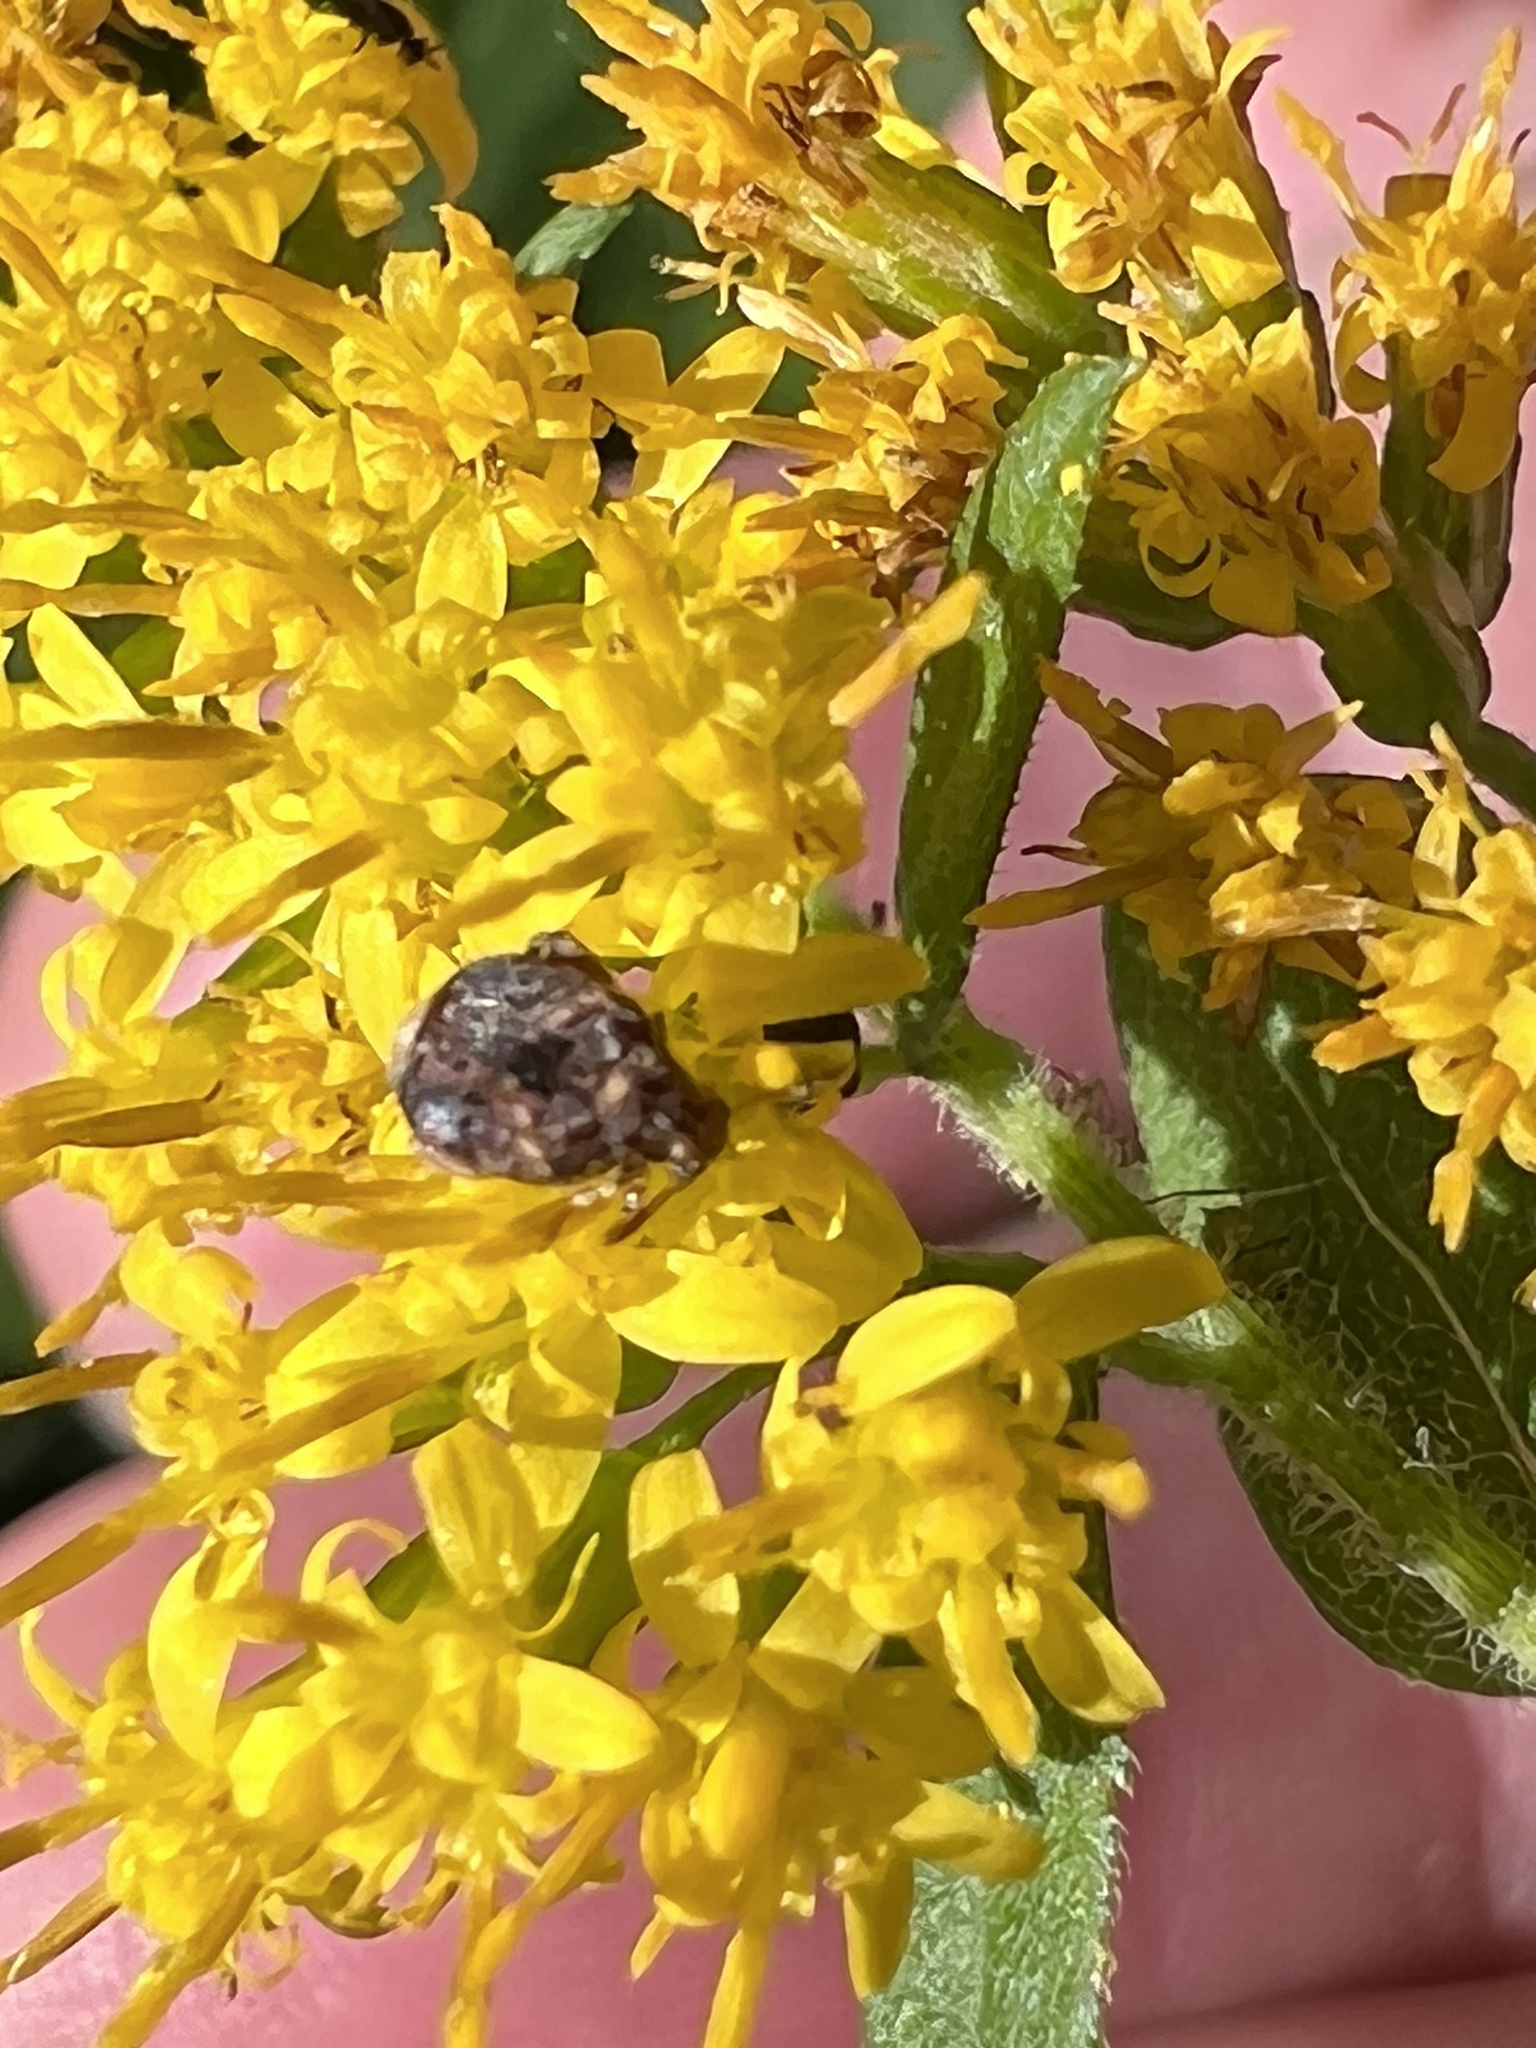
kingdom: Animalia
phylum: Arthropoda
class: Insecta
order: Coleoptera
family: Chrysomelidae
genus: Gibbobruchus
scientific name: Gibbobruchus mimus
